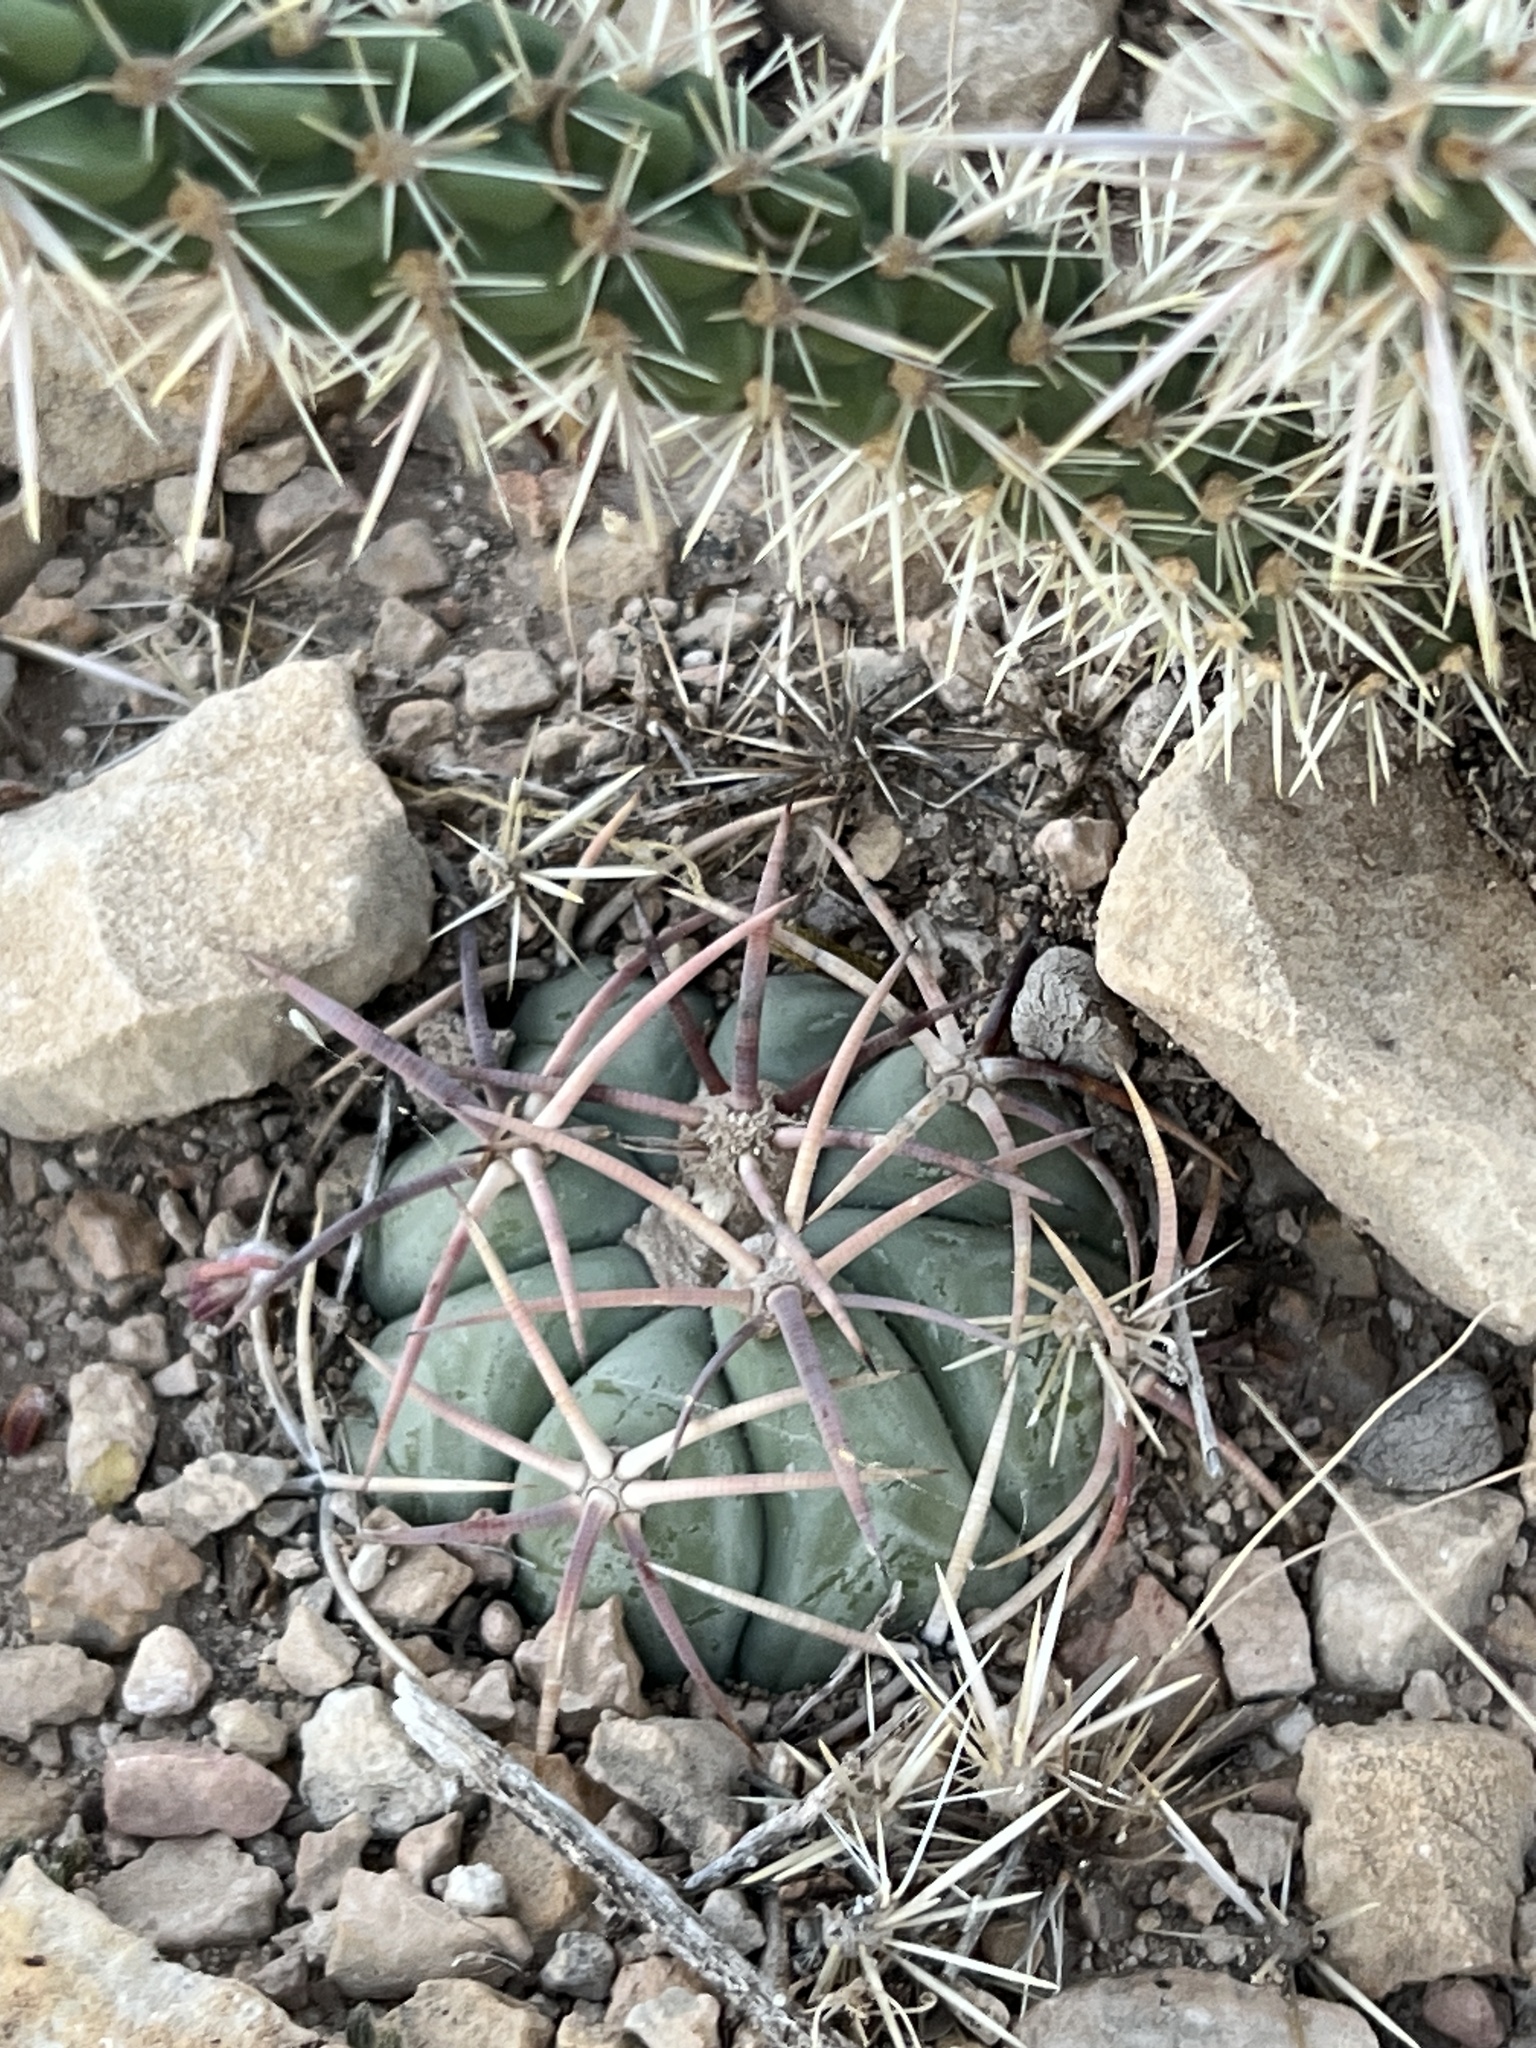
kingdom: Plantae
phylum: Tracheophyta
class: Magnoliopsida
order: Caryophyllales
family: Cactaceae
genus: Echinocactus
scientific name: Echinocactus horizonthalonius
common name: Devilshead
